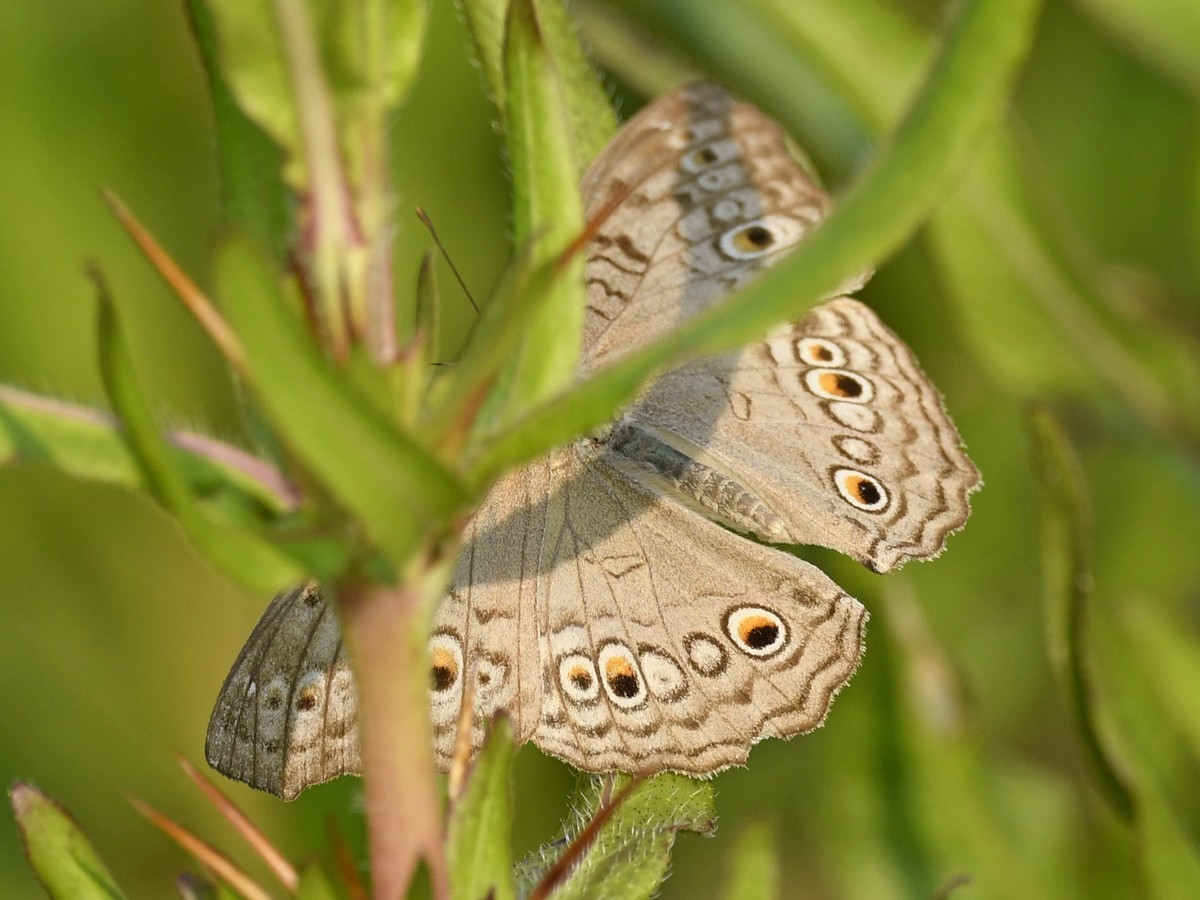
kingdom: Animalia
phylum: Arthropoda
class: Insecta
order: Lepidoptera
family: Nymphalidae
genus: Junonia
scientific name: Junonia atlites
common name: Grey pansy
